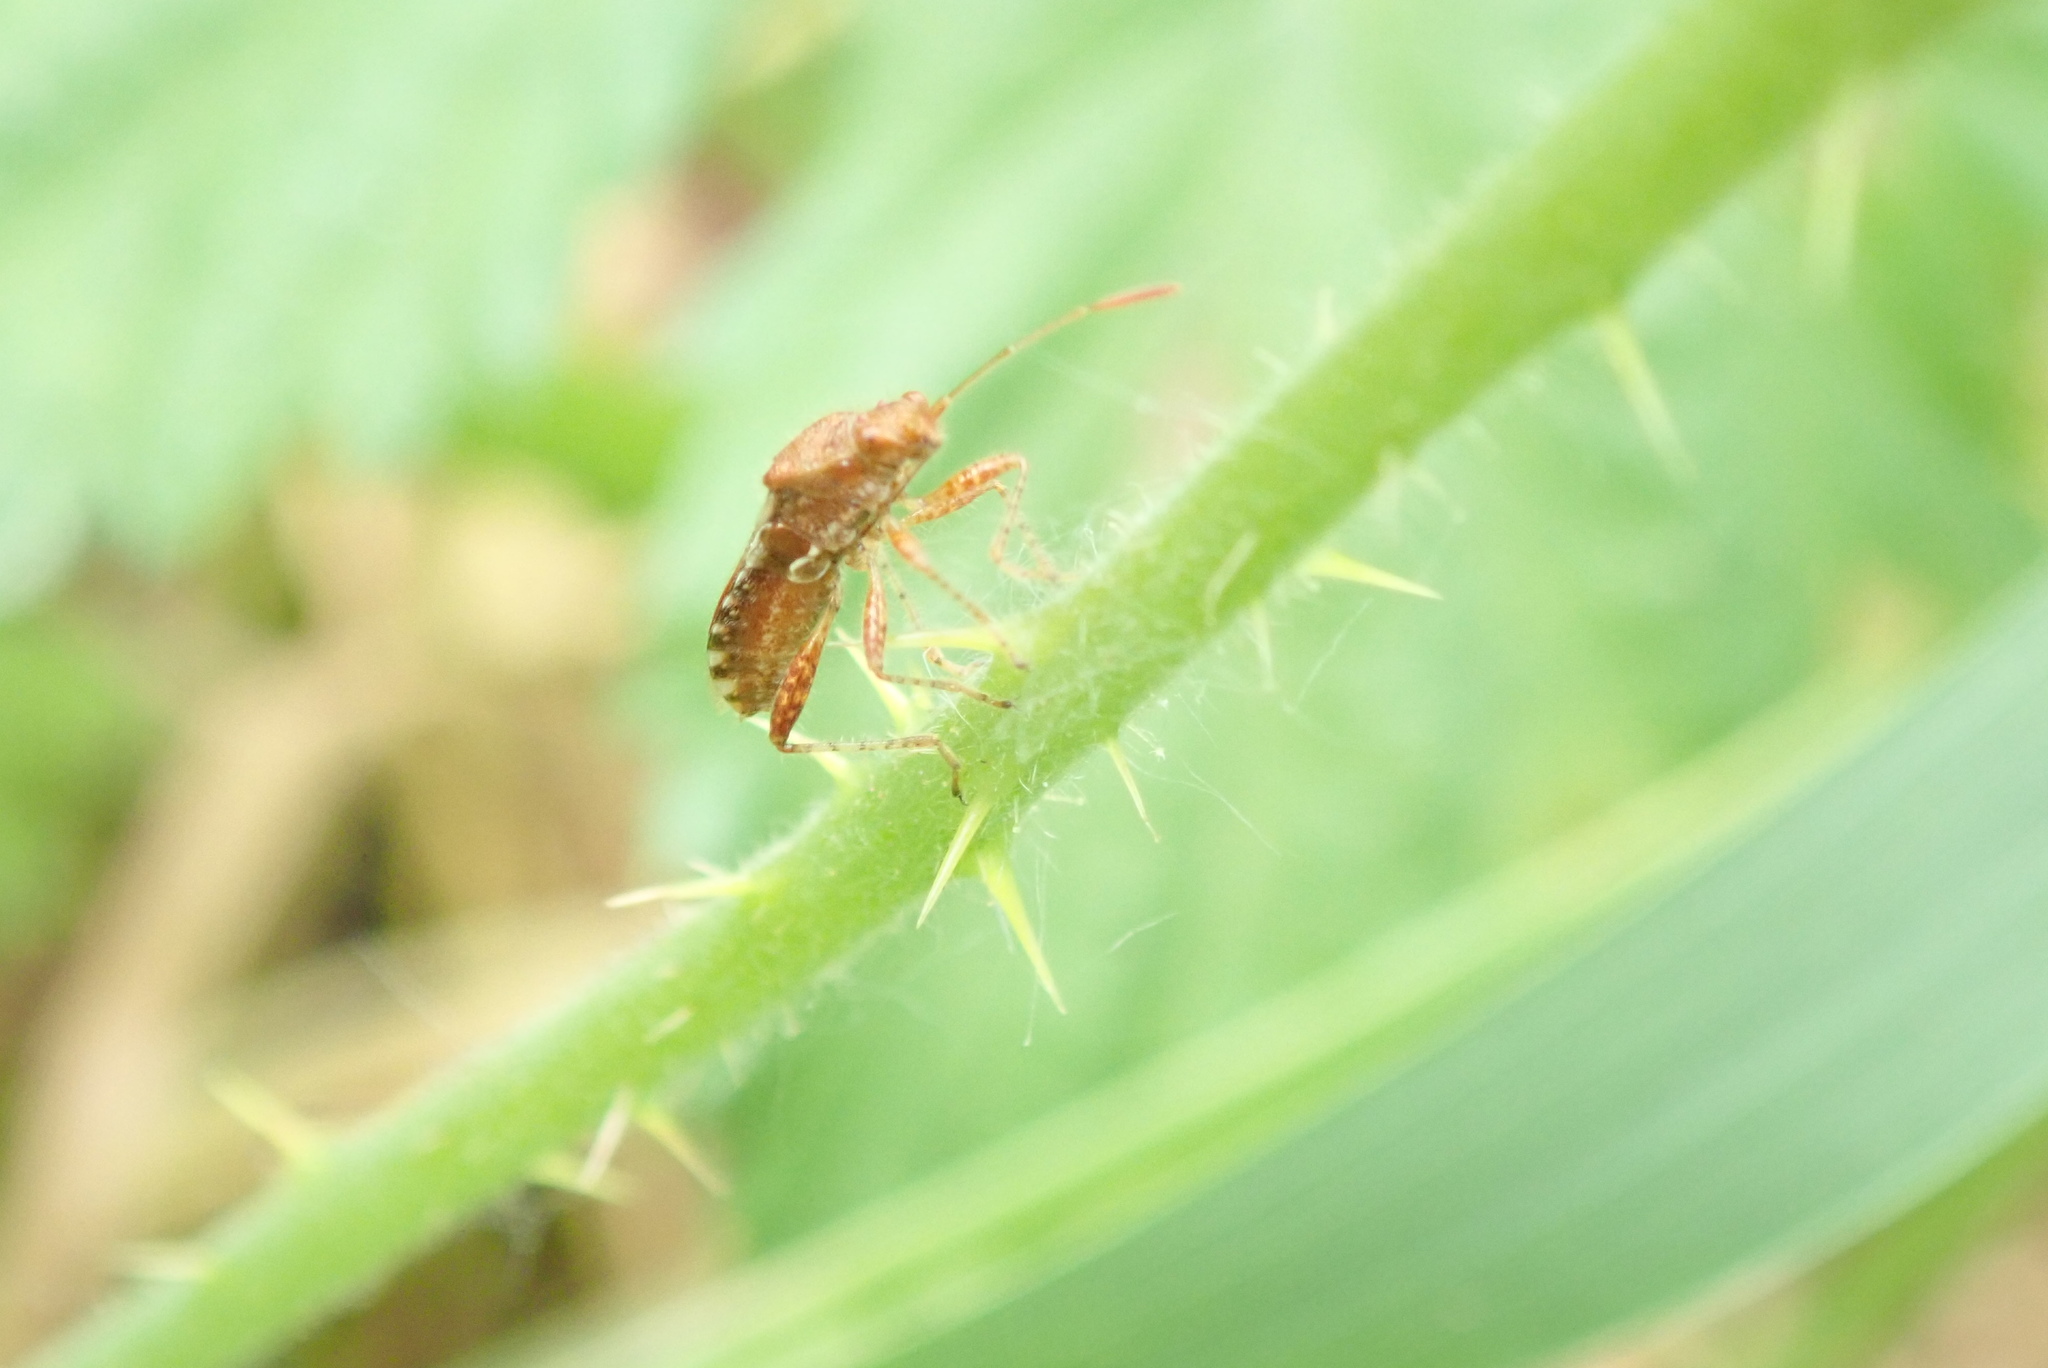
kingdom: Animalia
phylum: Arthropoda
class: Insecta
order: Hemiptera
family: Rhopalidae
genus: Rhopalus
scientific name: Rhopalus subrufus
